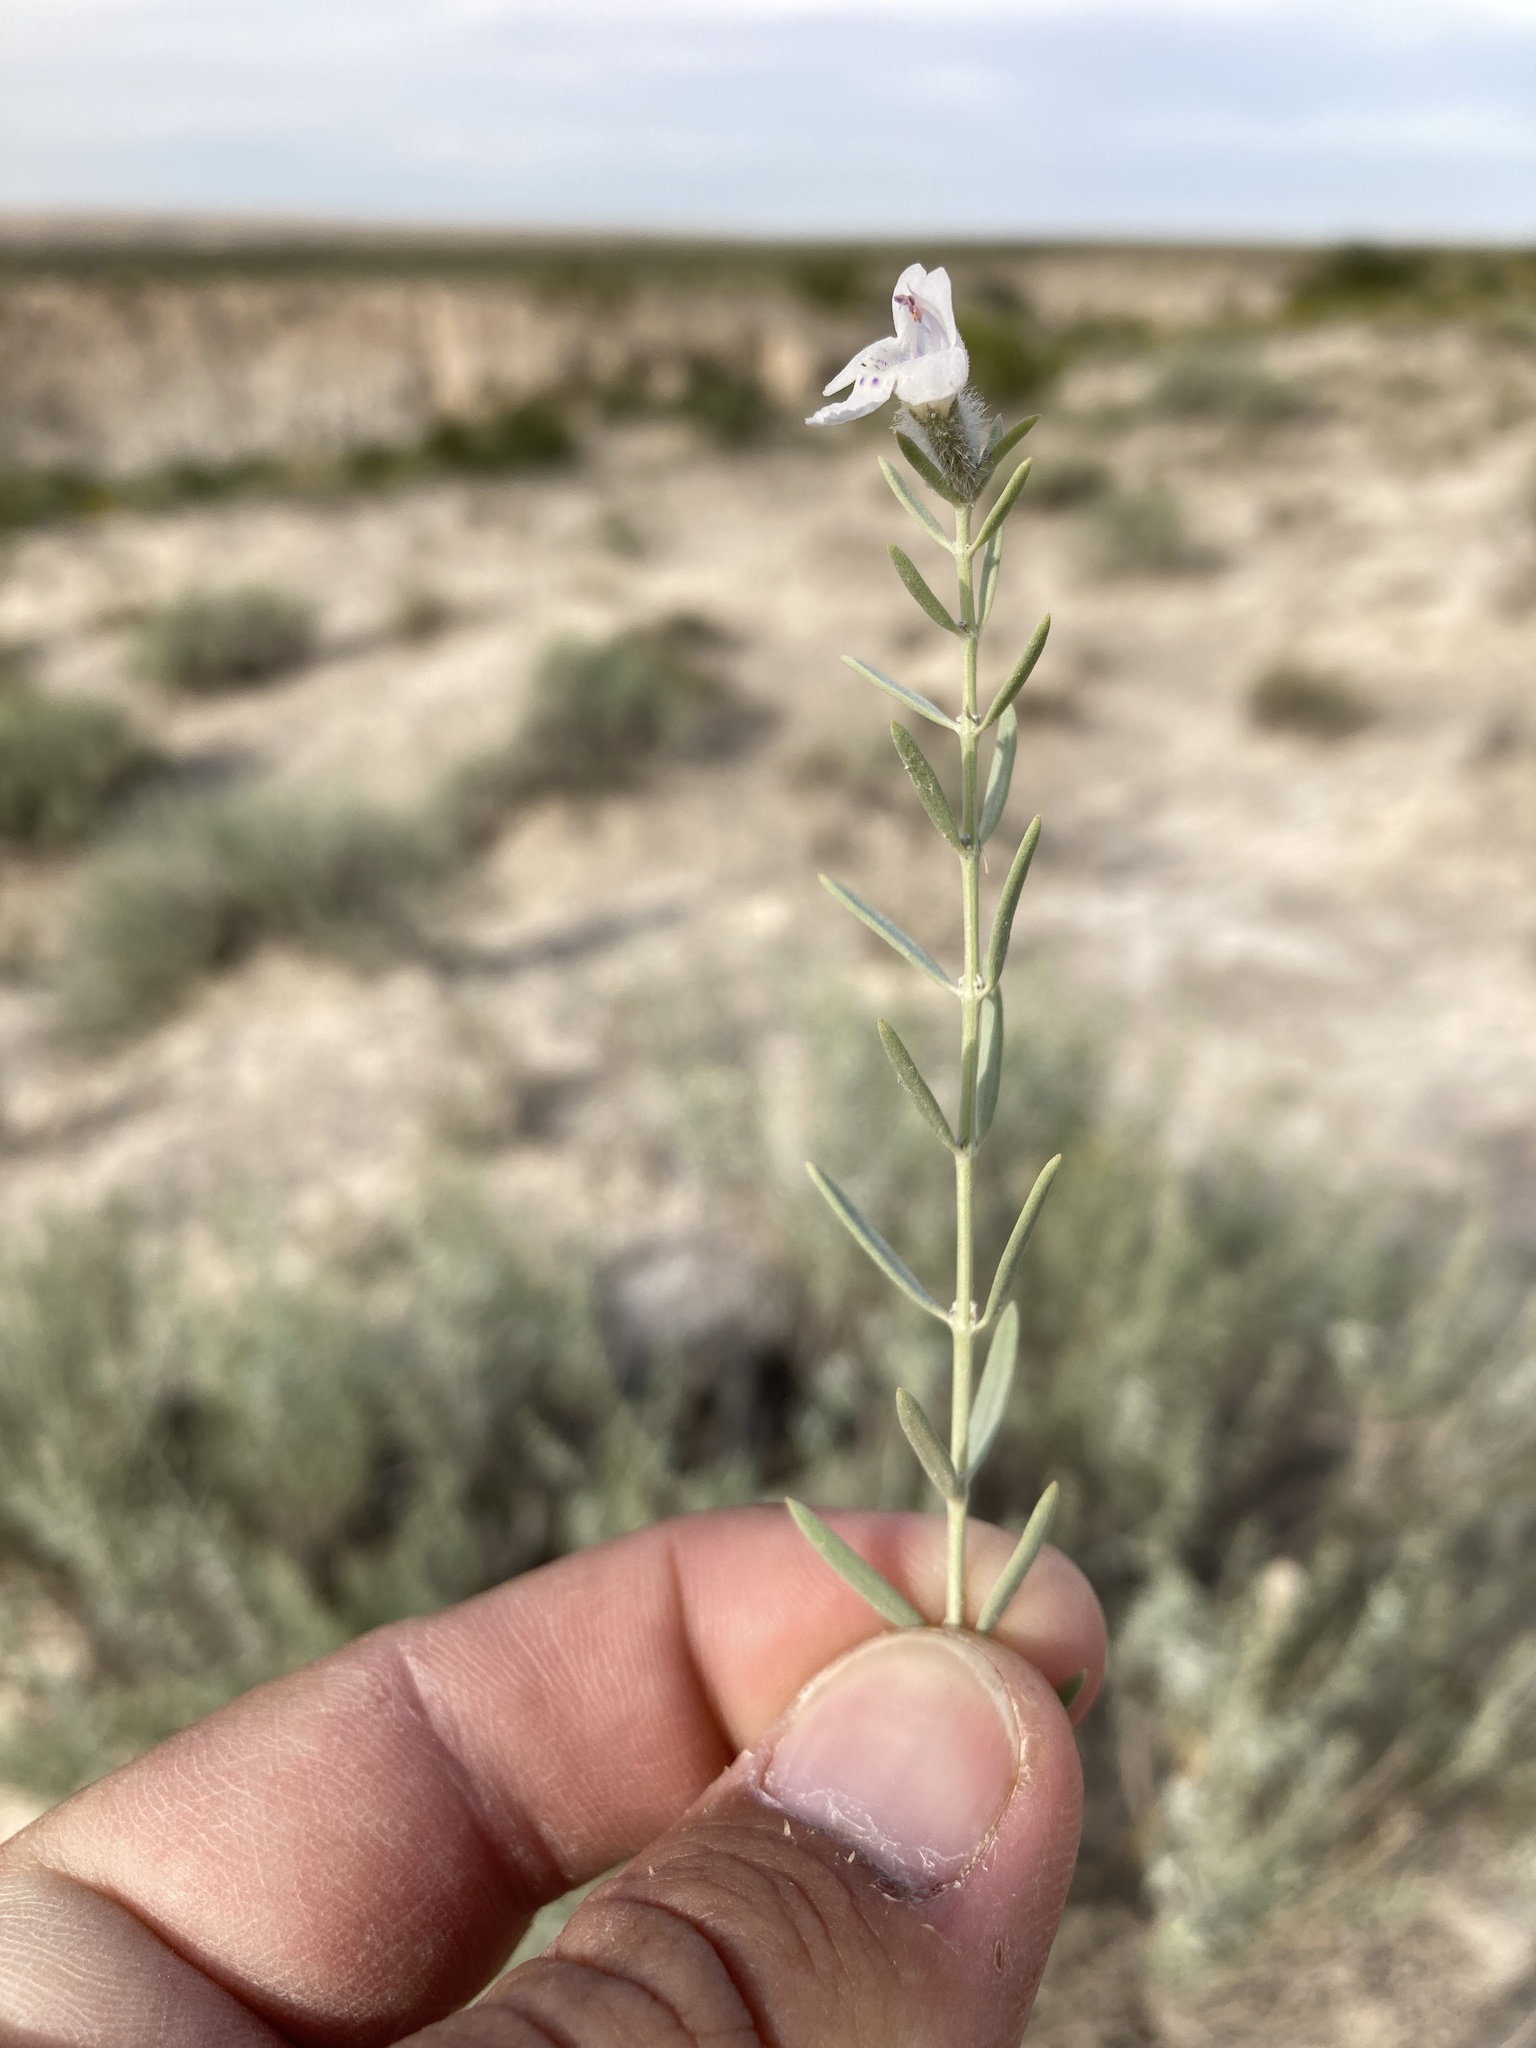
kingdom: Plantae
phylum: Tracheophyta
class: Magnoliopsida
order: Lamiales
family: Lamiaceae
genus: Poliomintha
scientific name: Poliomintha incana
